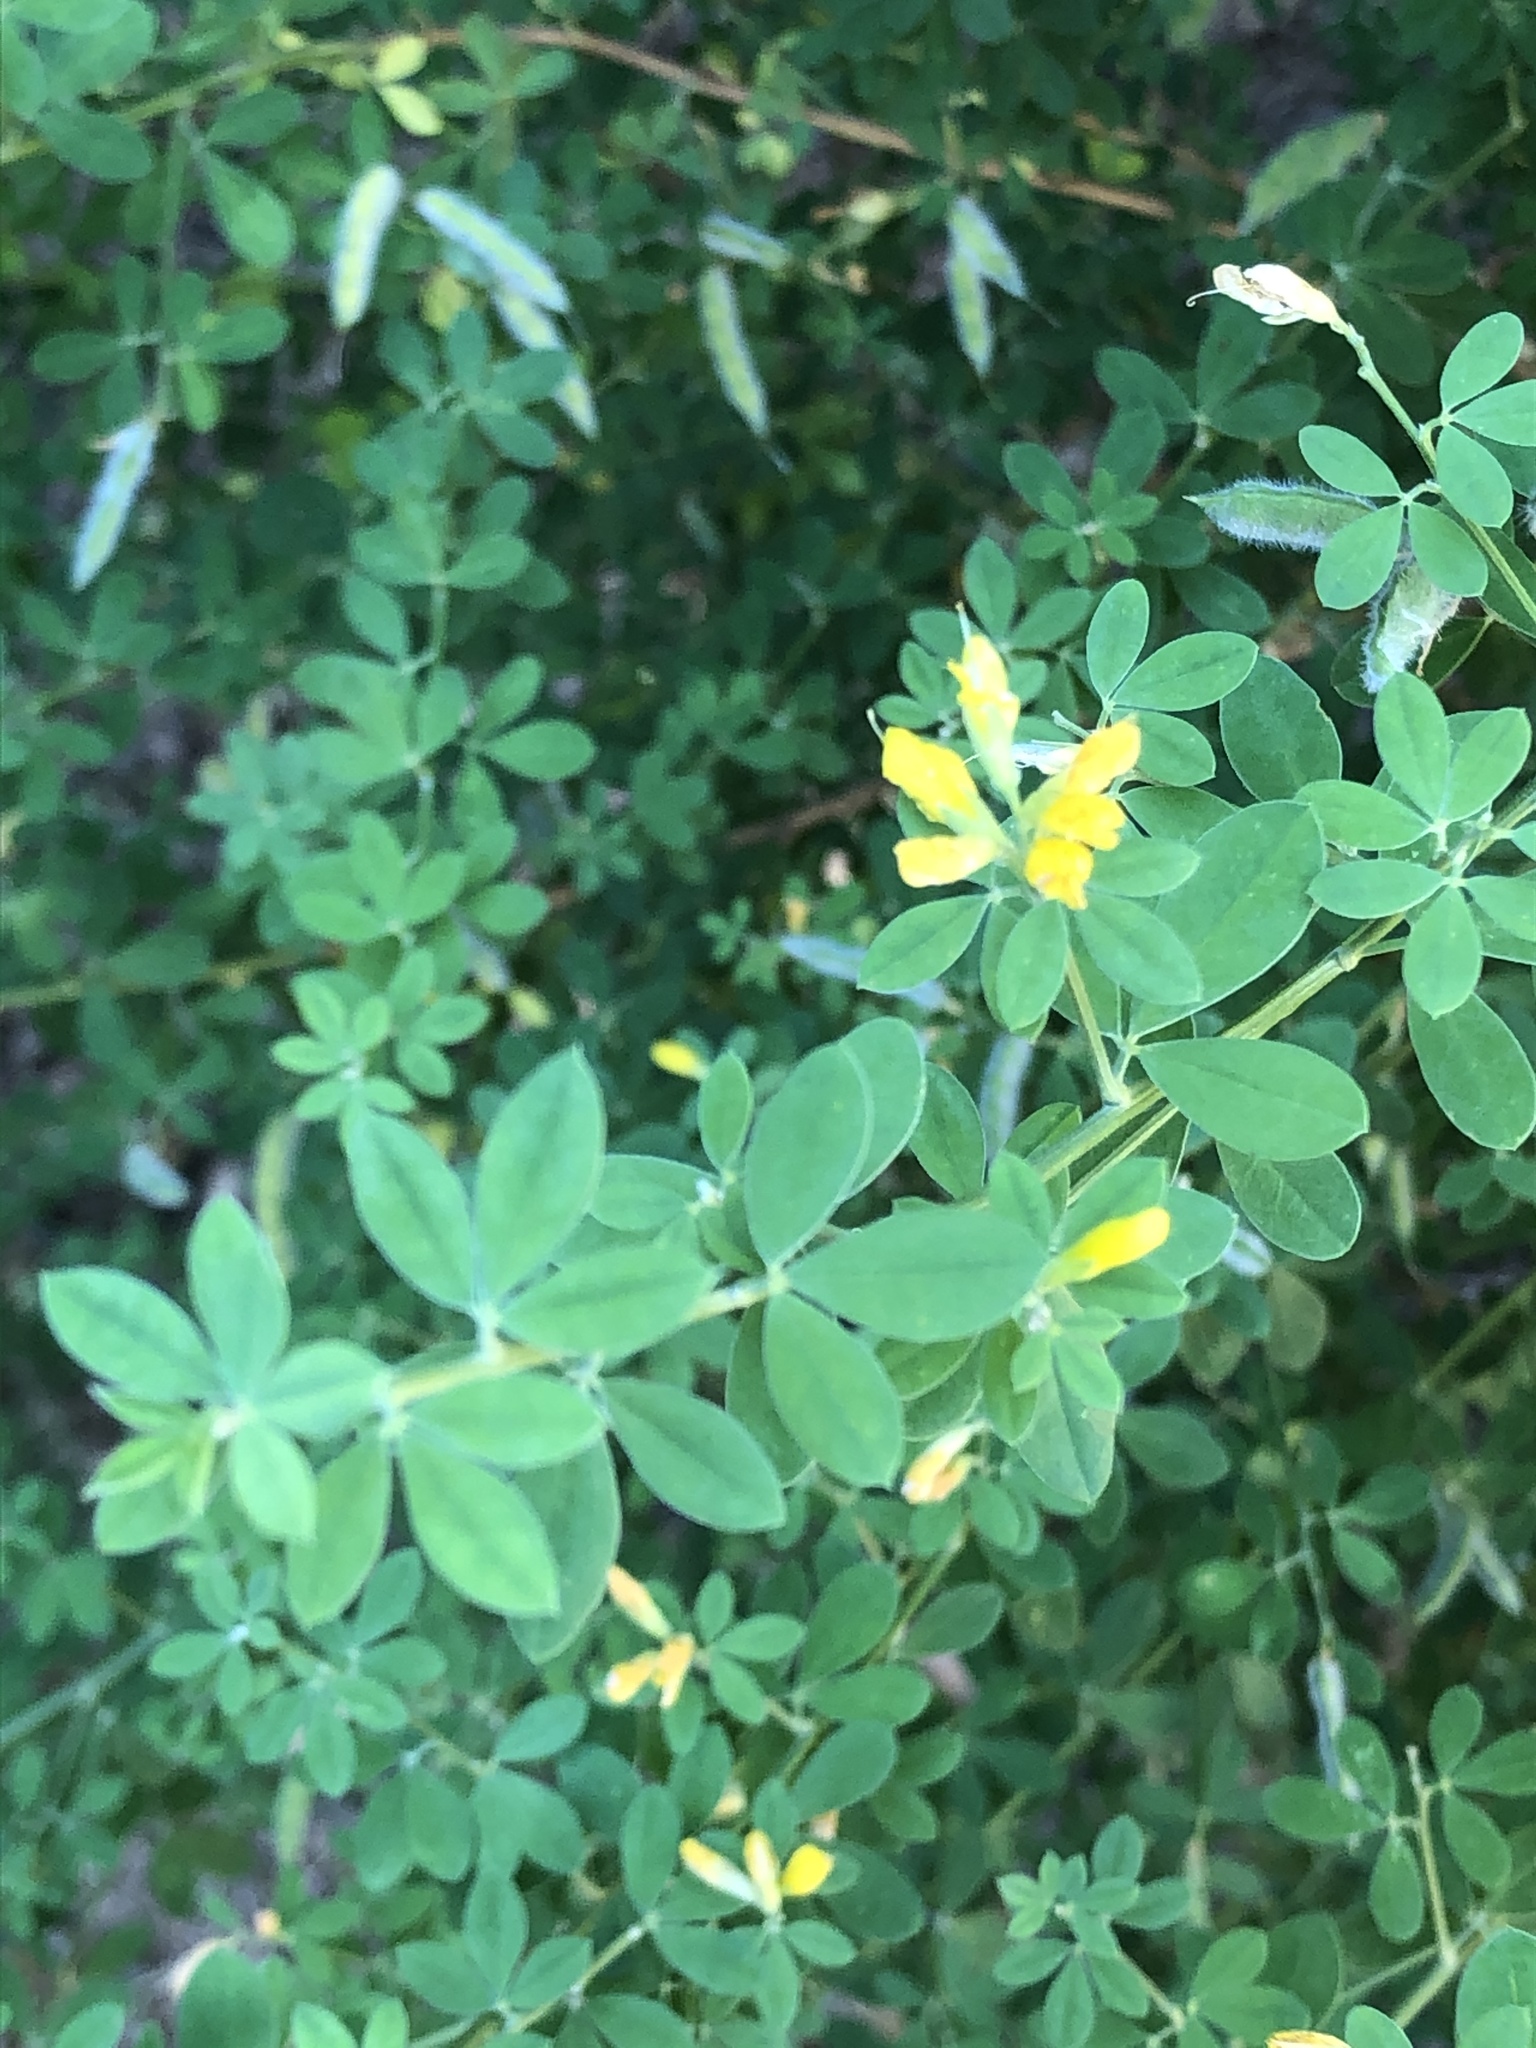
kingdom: Plantae
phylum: Tracheophyta
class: Magnoliopsida
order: Fabales
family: Fabaceae
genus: Genista
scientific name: Genista monspessulana
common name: Montpellier broom
